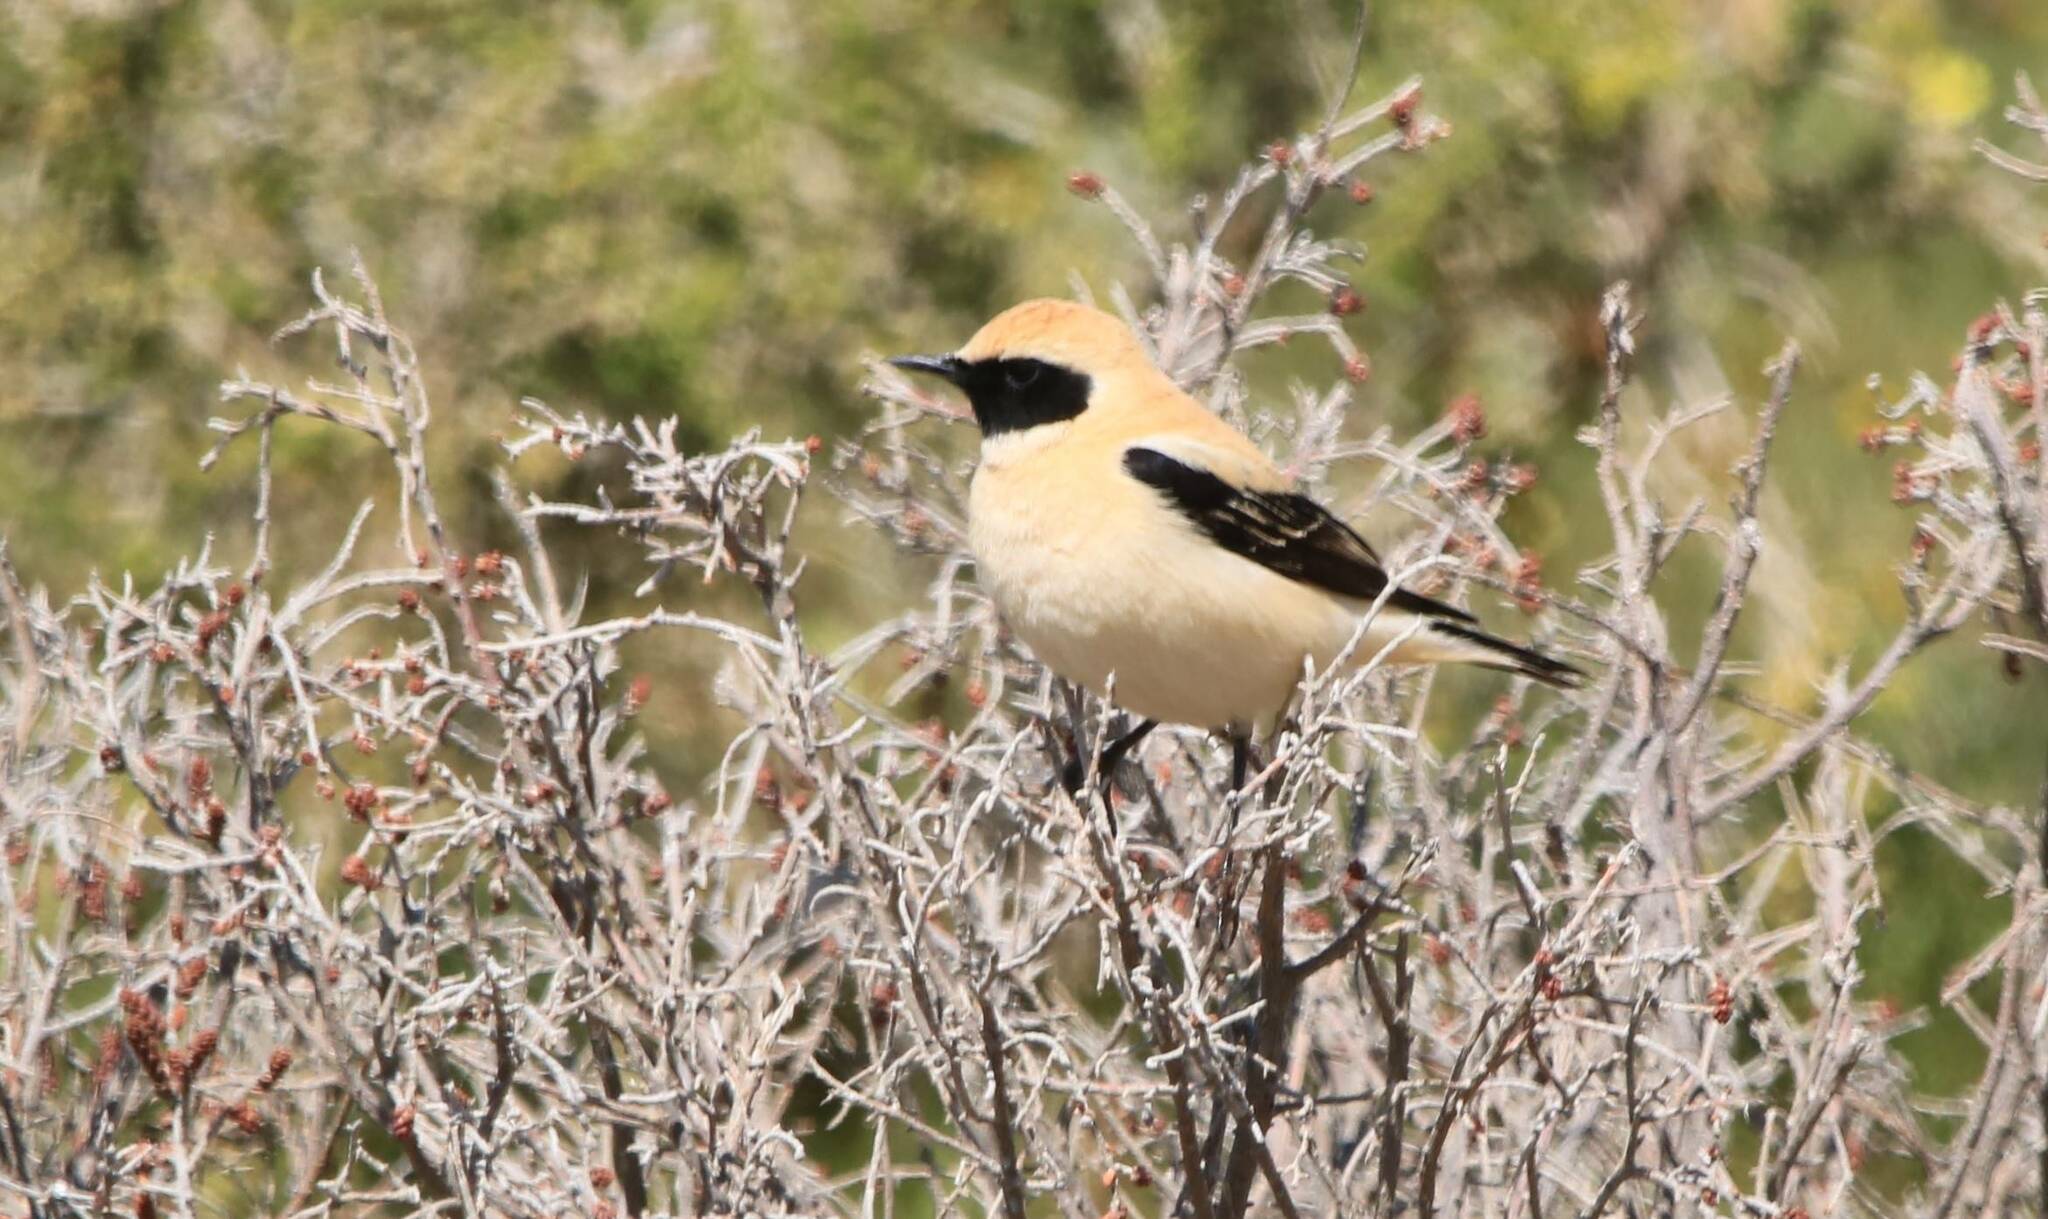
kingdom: Animalia
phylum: Chordata
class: Aves
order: Passeriformes
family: Muscicapidae
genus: Oenanthe
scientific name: Oenanthe hispanica
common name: Black-eared wheatear
